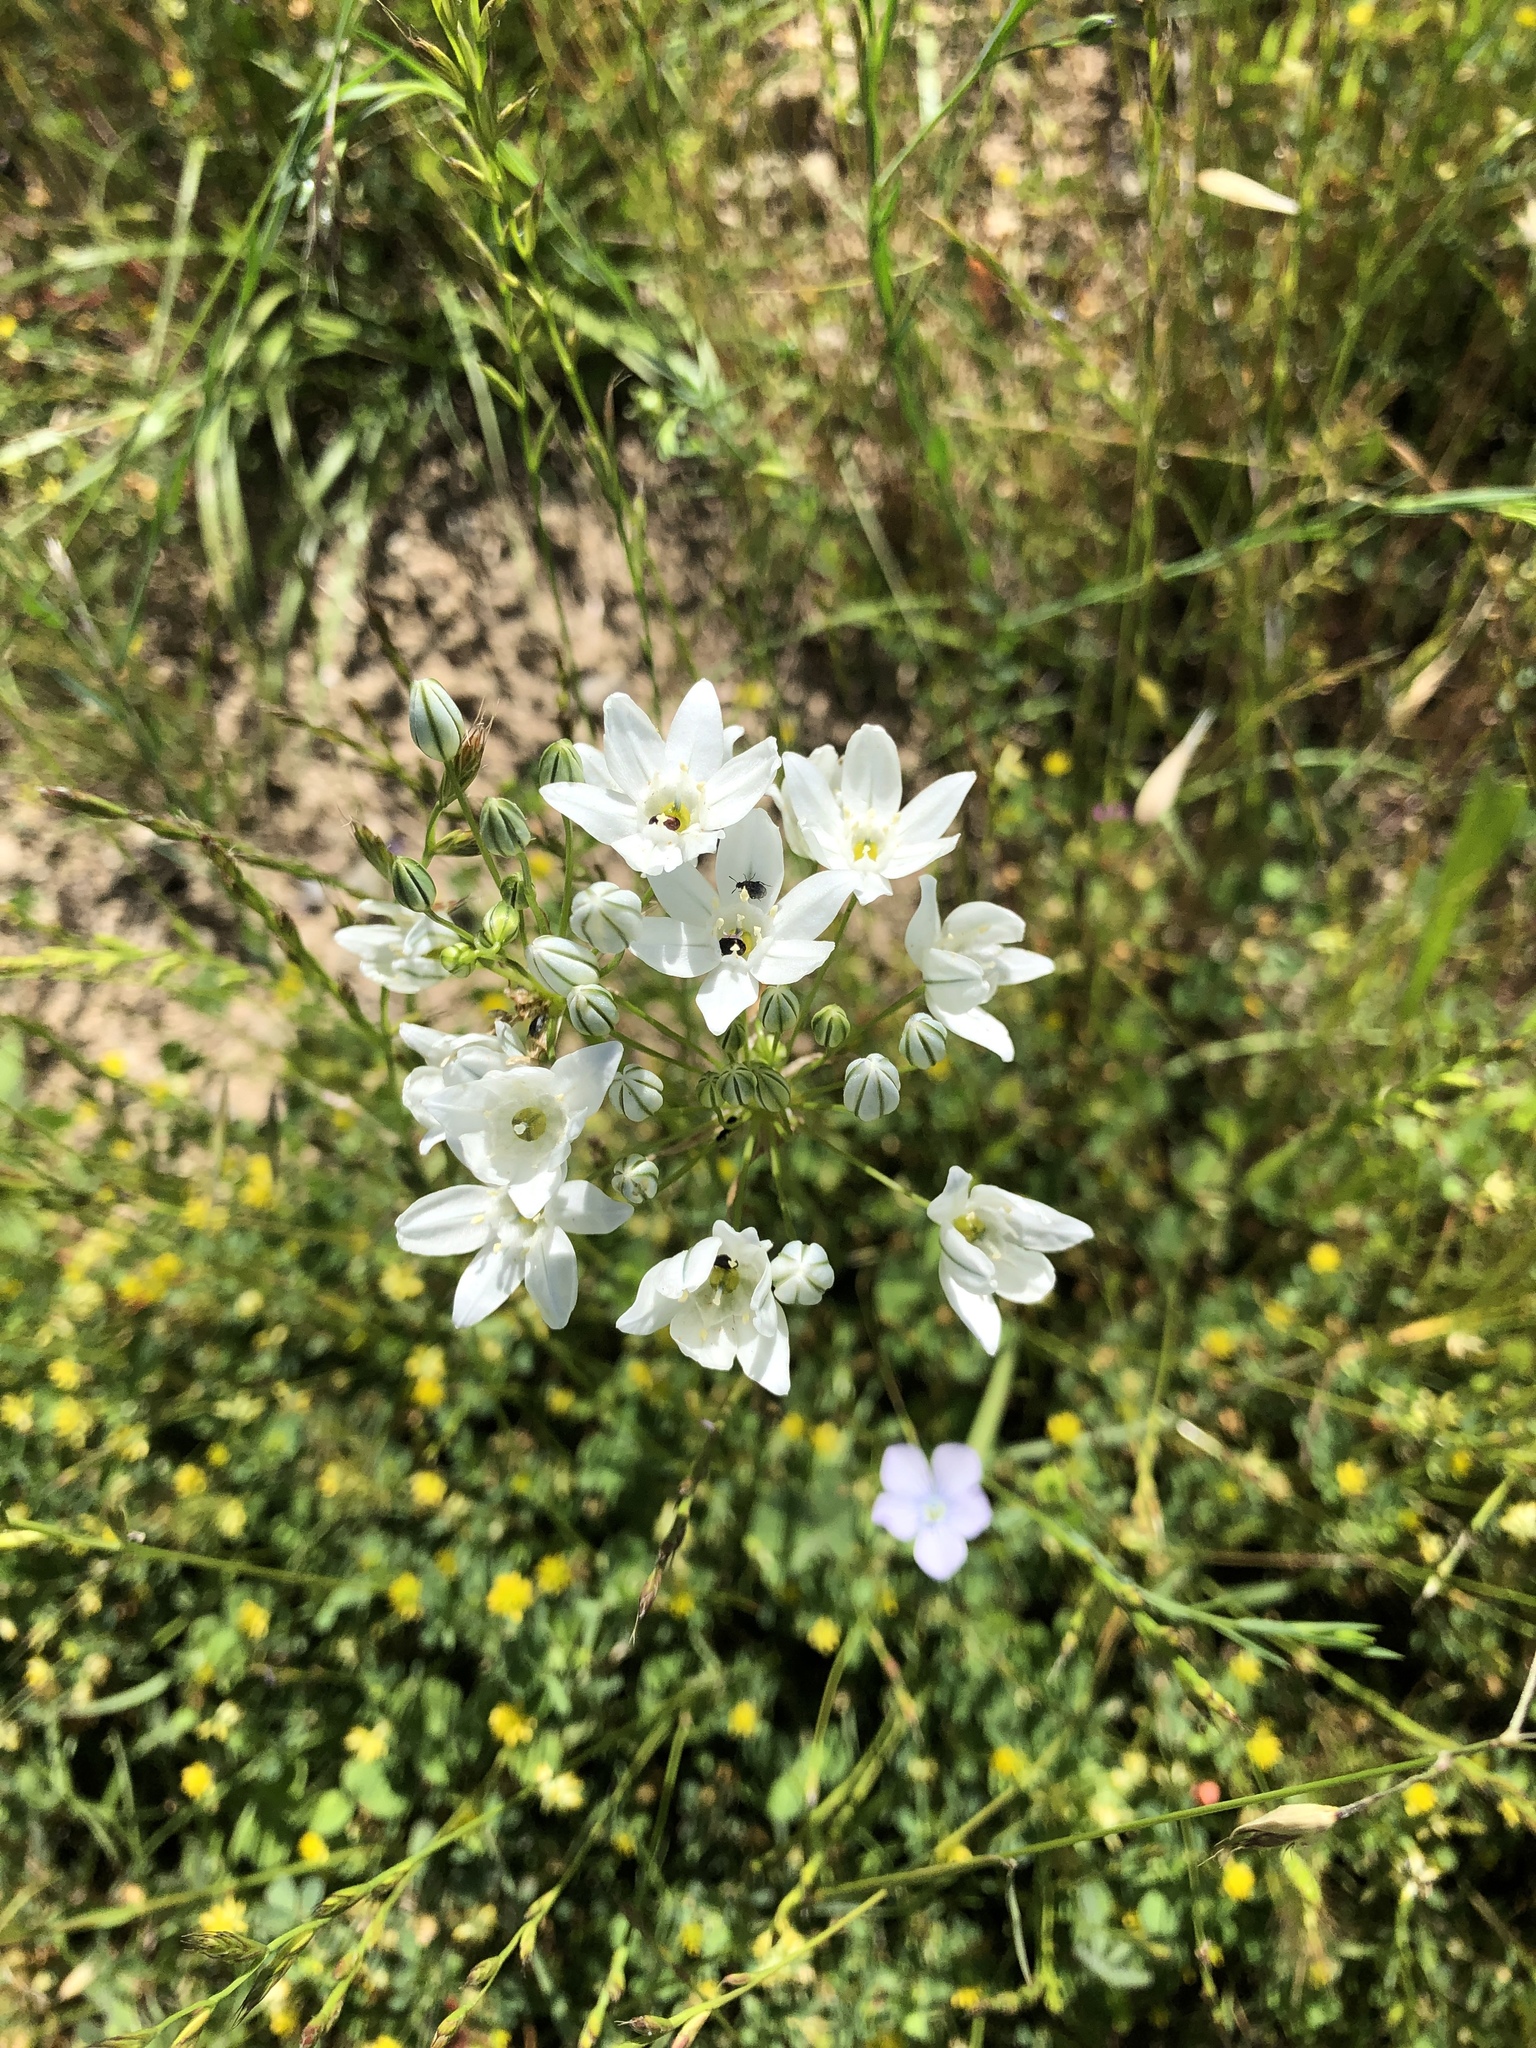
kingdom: Plantae
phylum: Tracheophyta
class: Liliopsida
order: Asparagales
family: Asparagaceae
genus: Triteleia
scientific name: Triteleia hyacinthina
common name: White brodiaea
